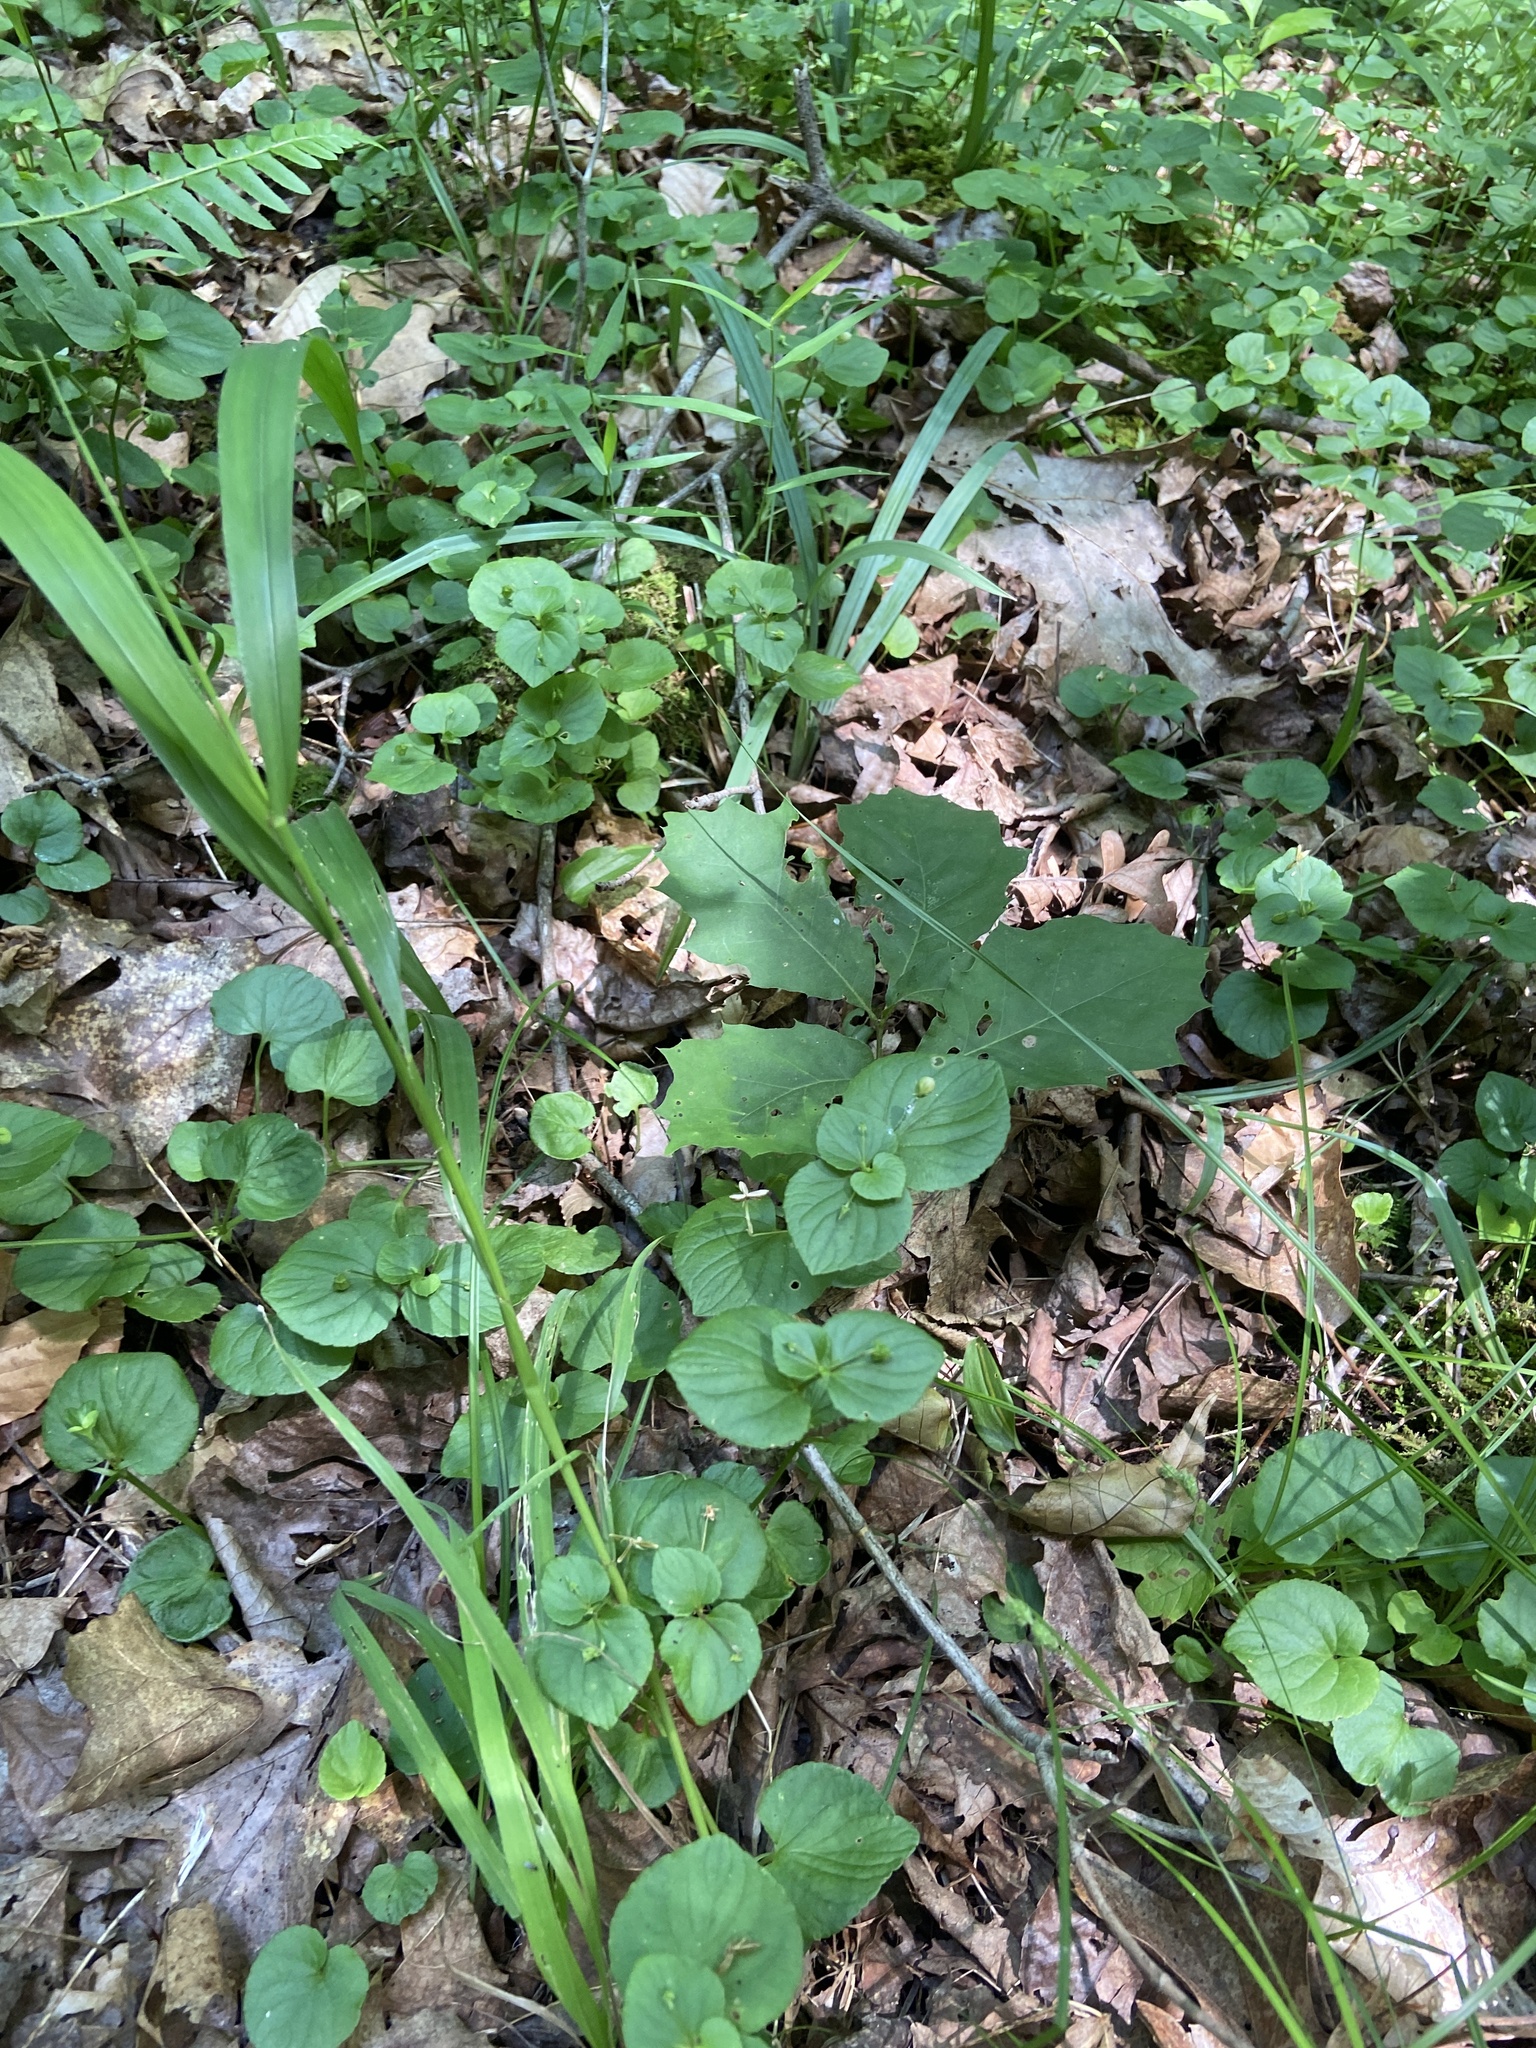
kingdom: Plantae
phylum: Tracheophyta
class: Magnoliopsida
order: Malpighiales
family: Violaceae
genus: Viola
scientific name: Viola eriocarpa
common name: Smooth yellow violet
